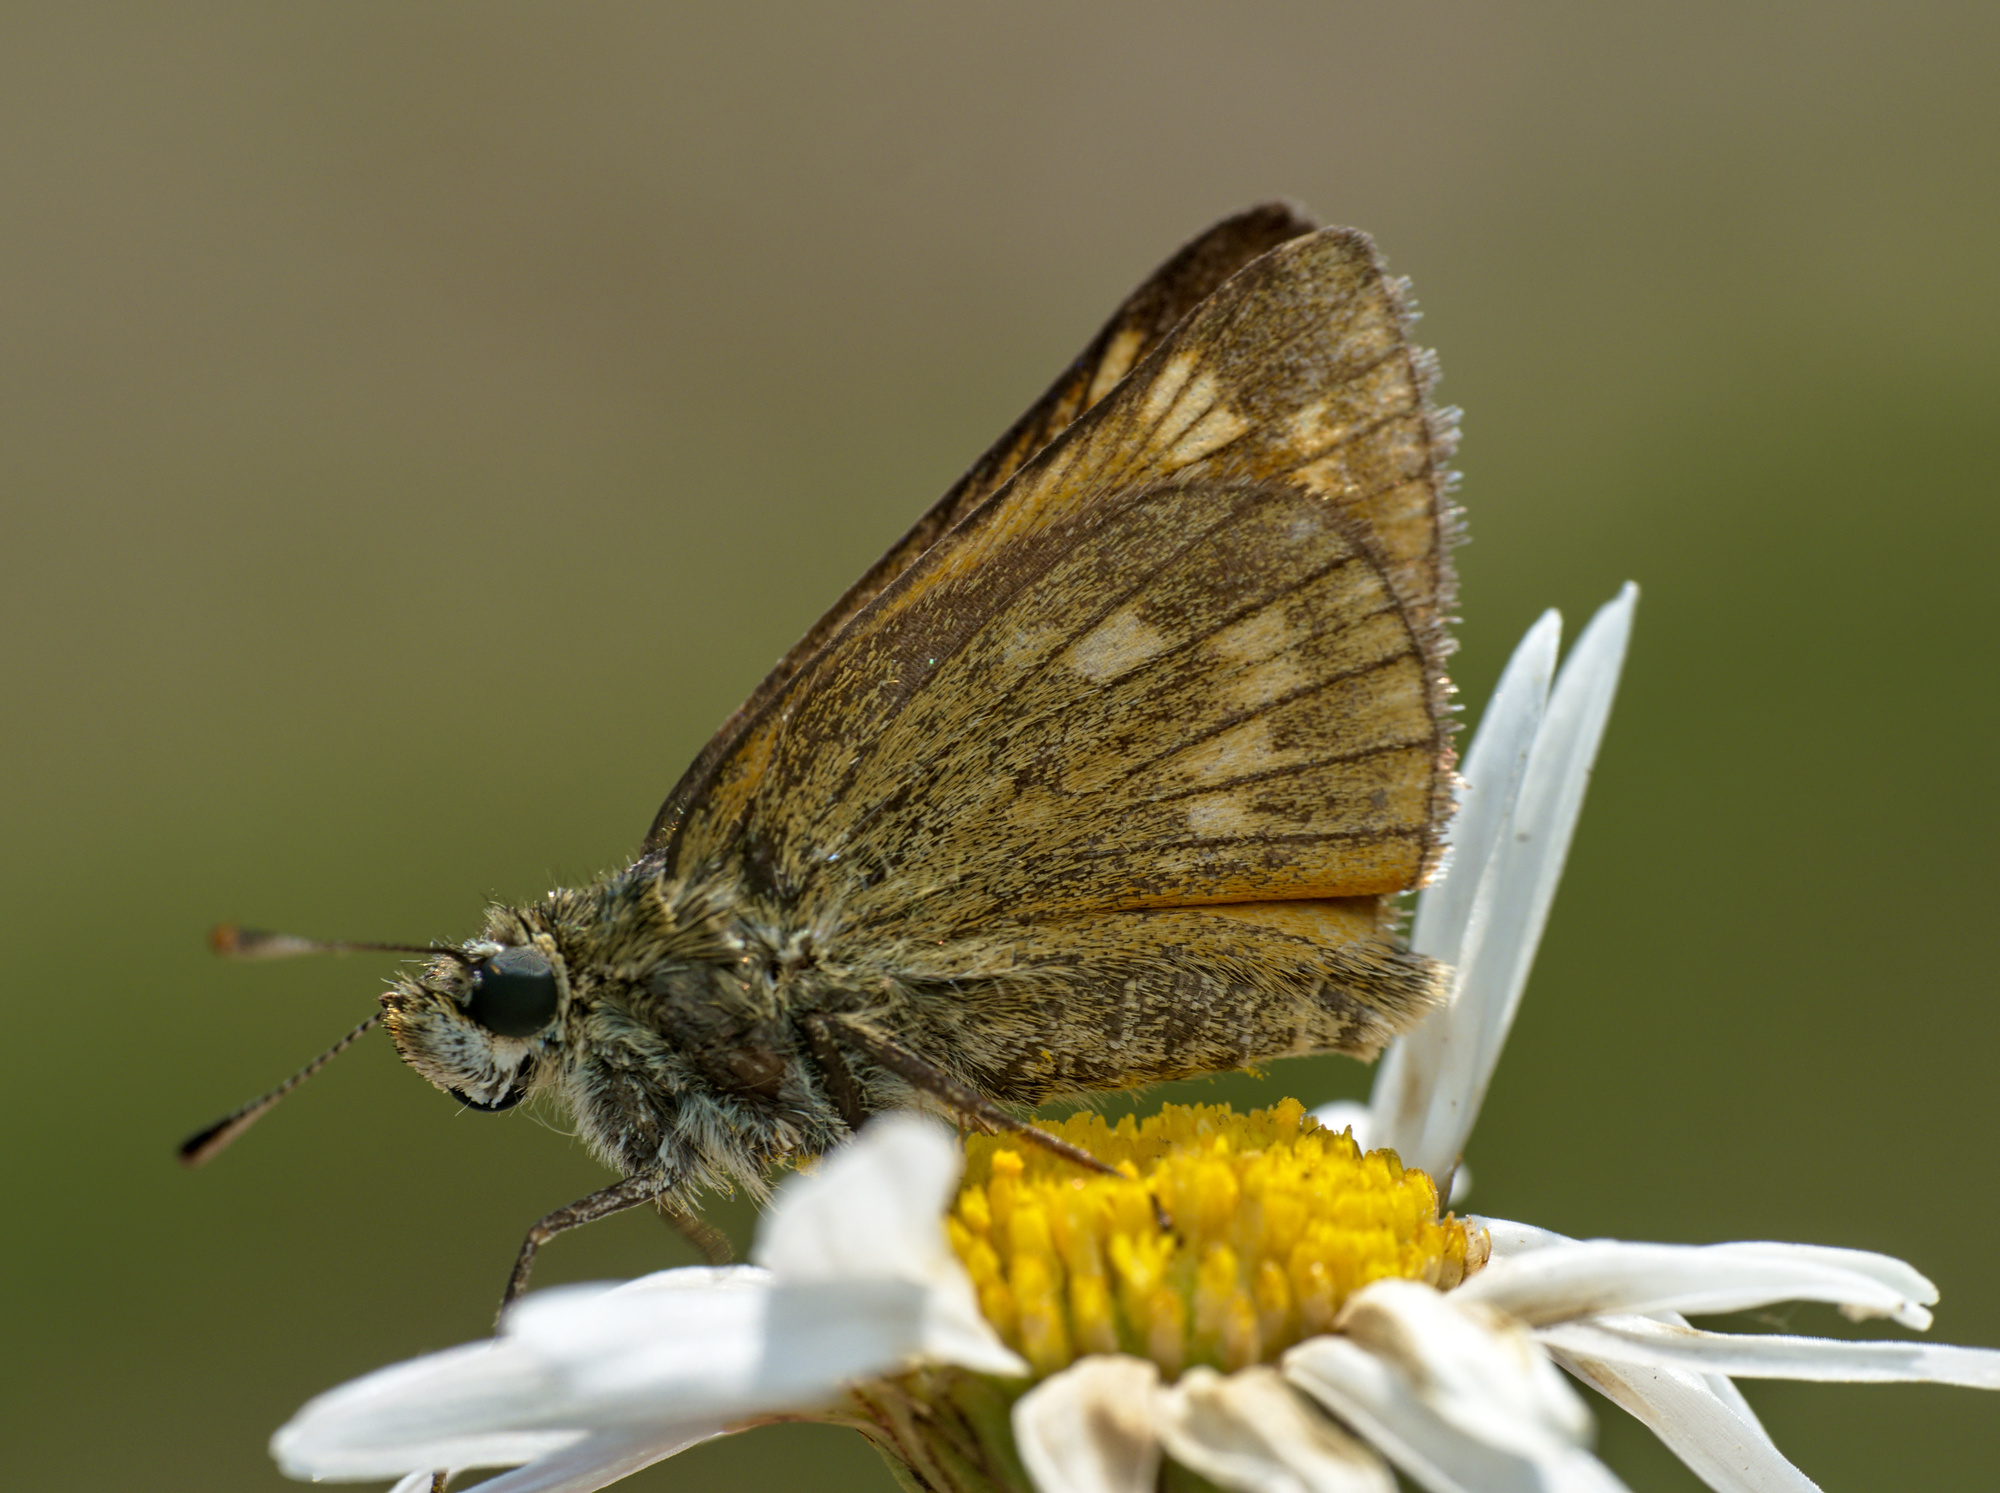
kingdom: Animalia
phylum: Arthropoda
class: Insecta
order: Lepidoptera
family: Hesperiidae
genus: Ochlodes
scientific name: Ochlodes venata
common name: Large skipper
